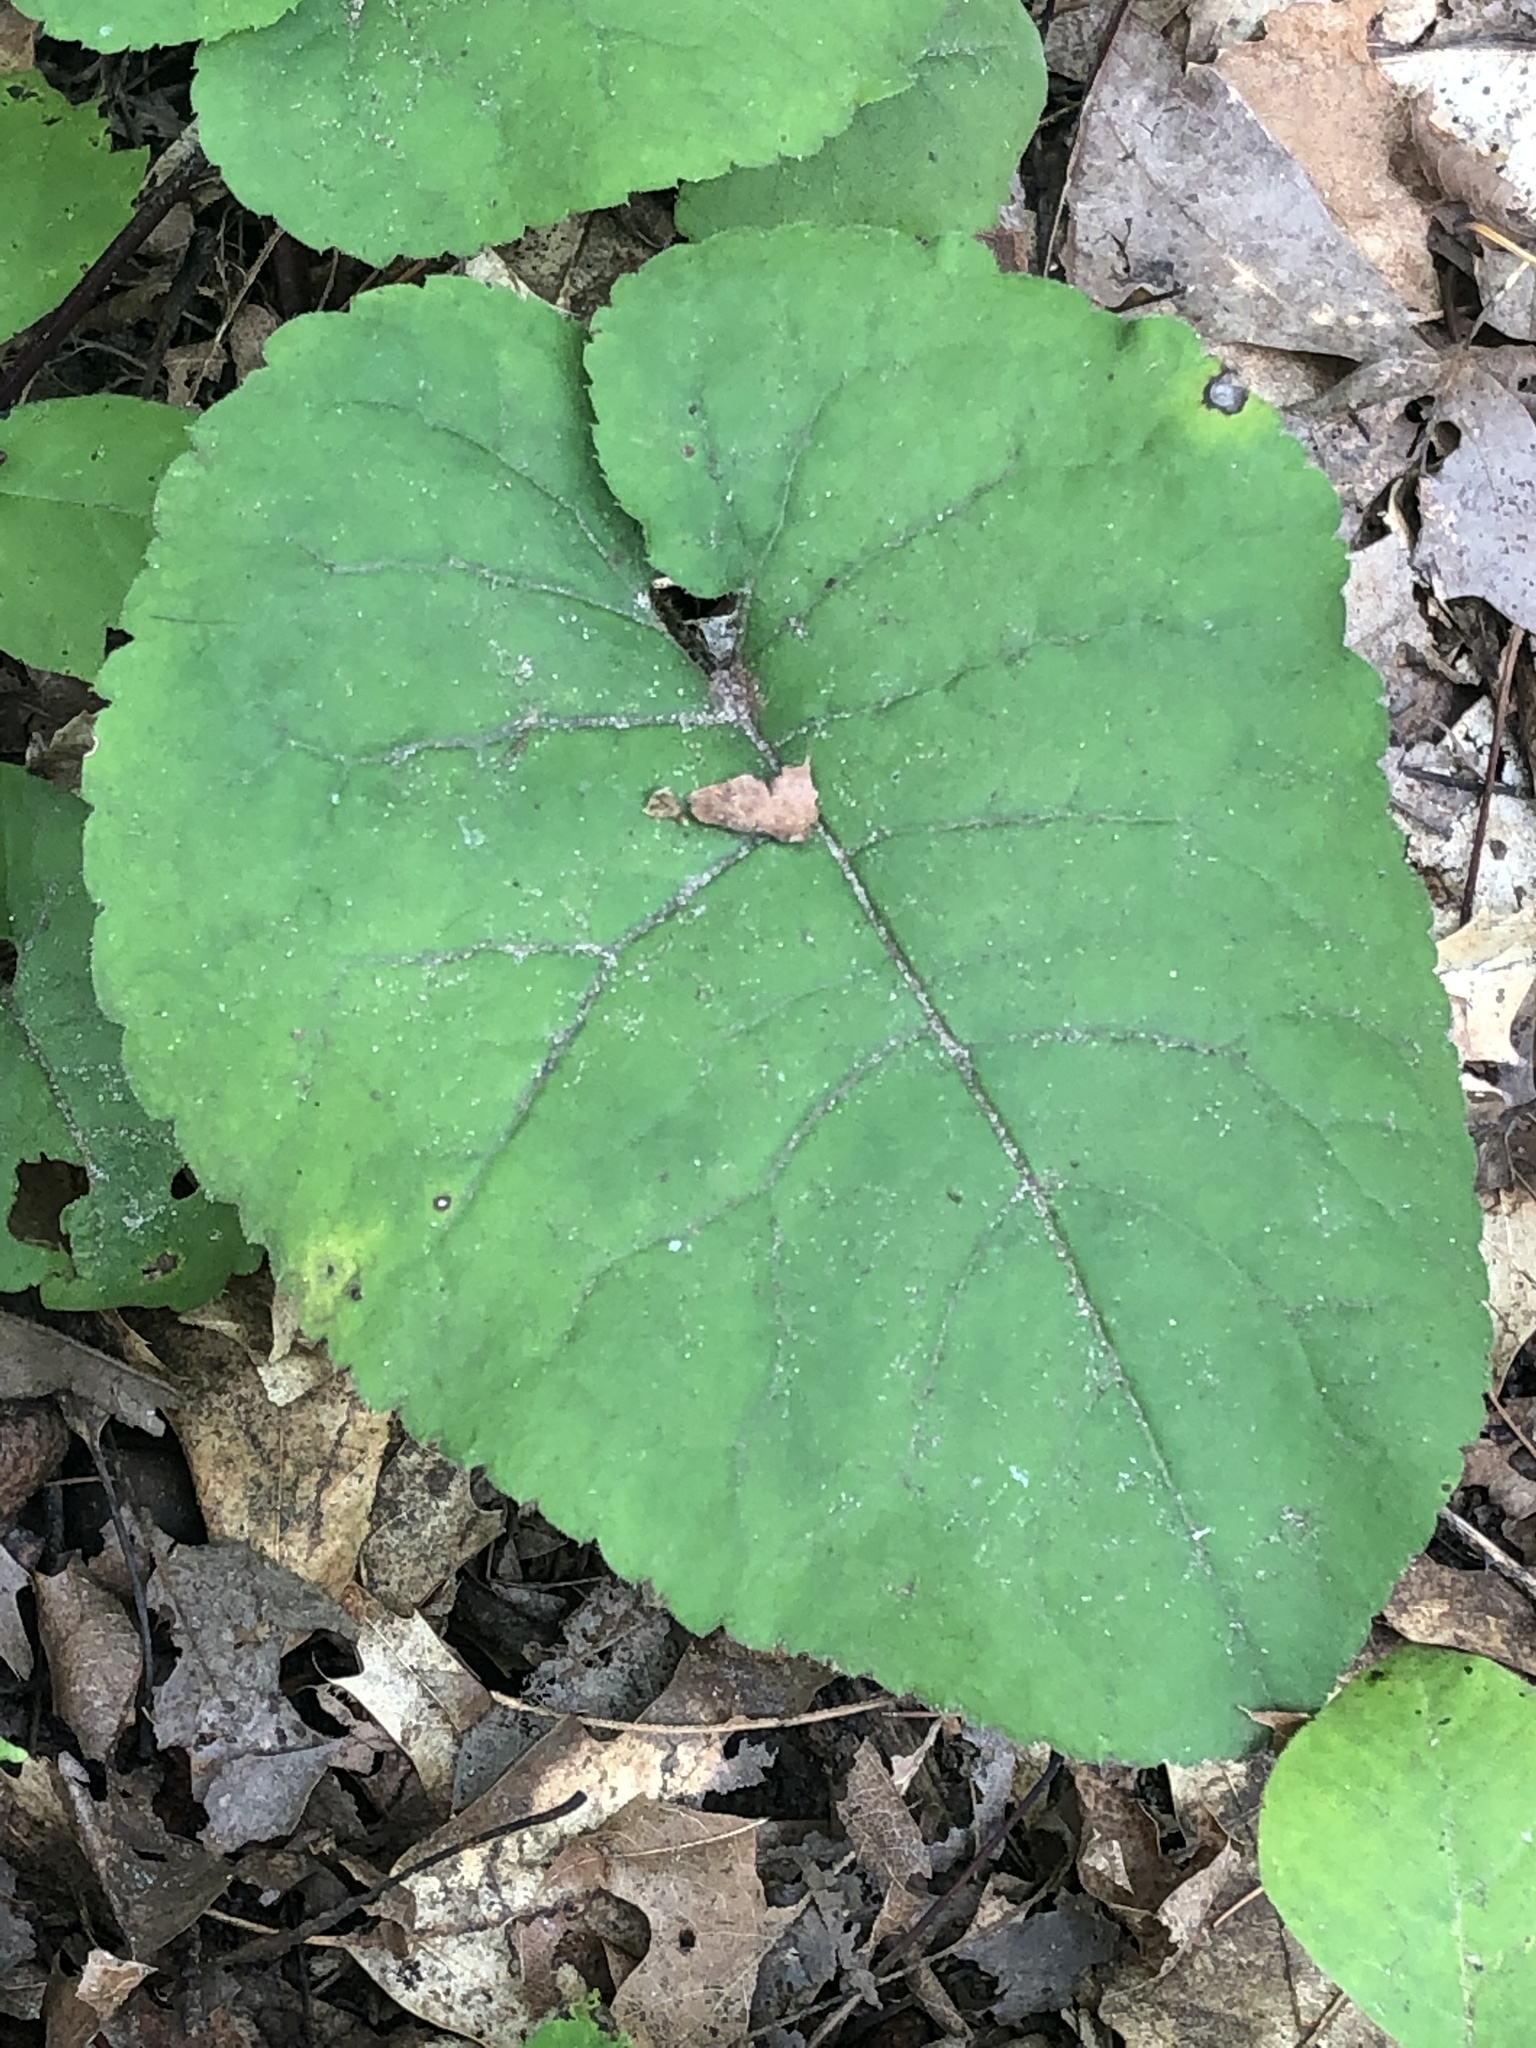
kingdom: Plantae
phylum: Tracheophyta
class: Magnoliopsida
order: Asterales
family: Asteraceae
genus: Eurybia
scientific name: Eurybia macrophylla
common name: Big-leaved aster
